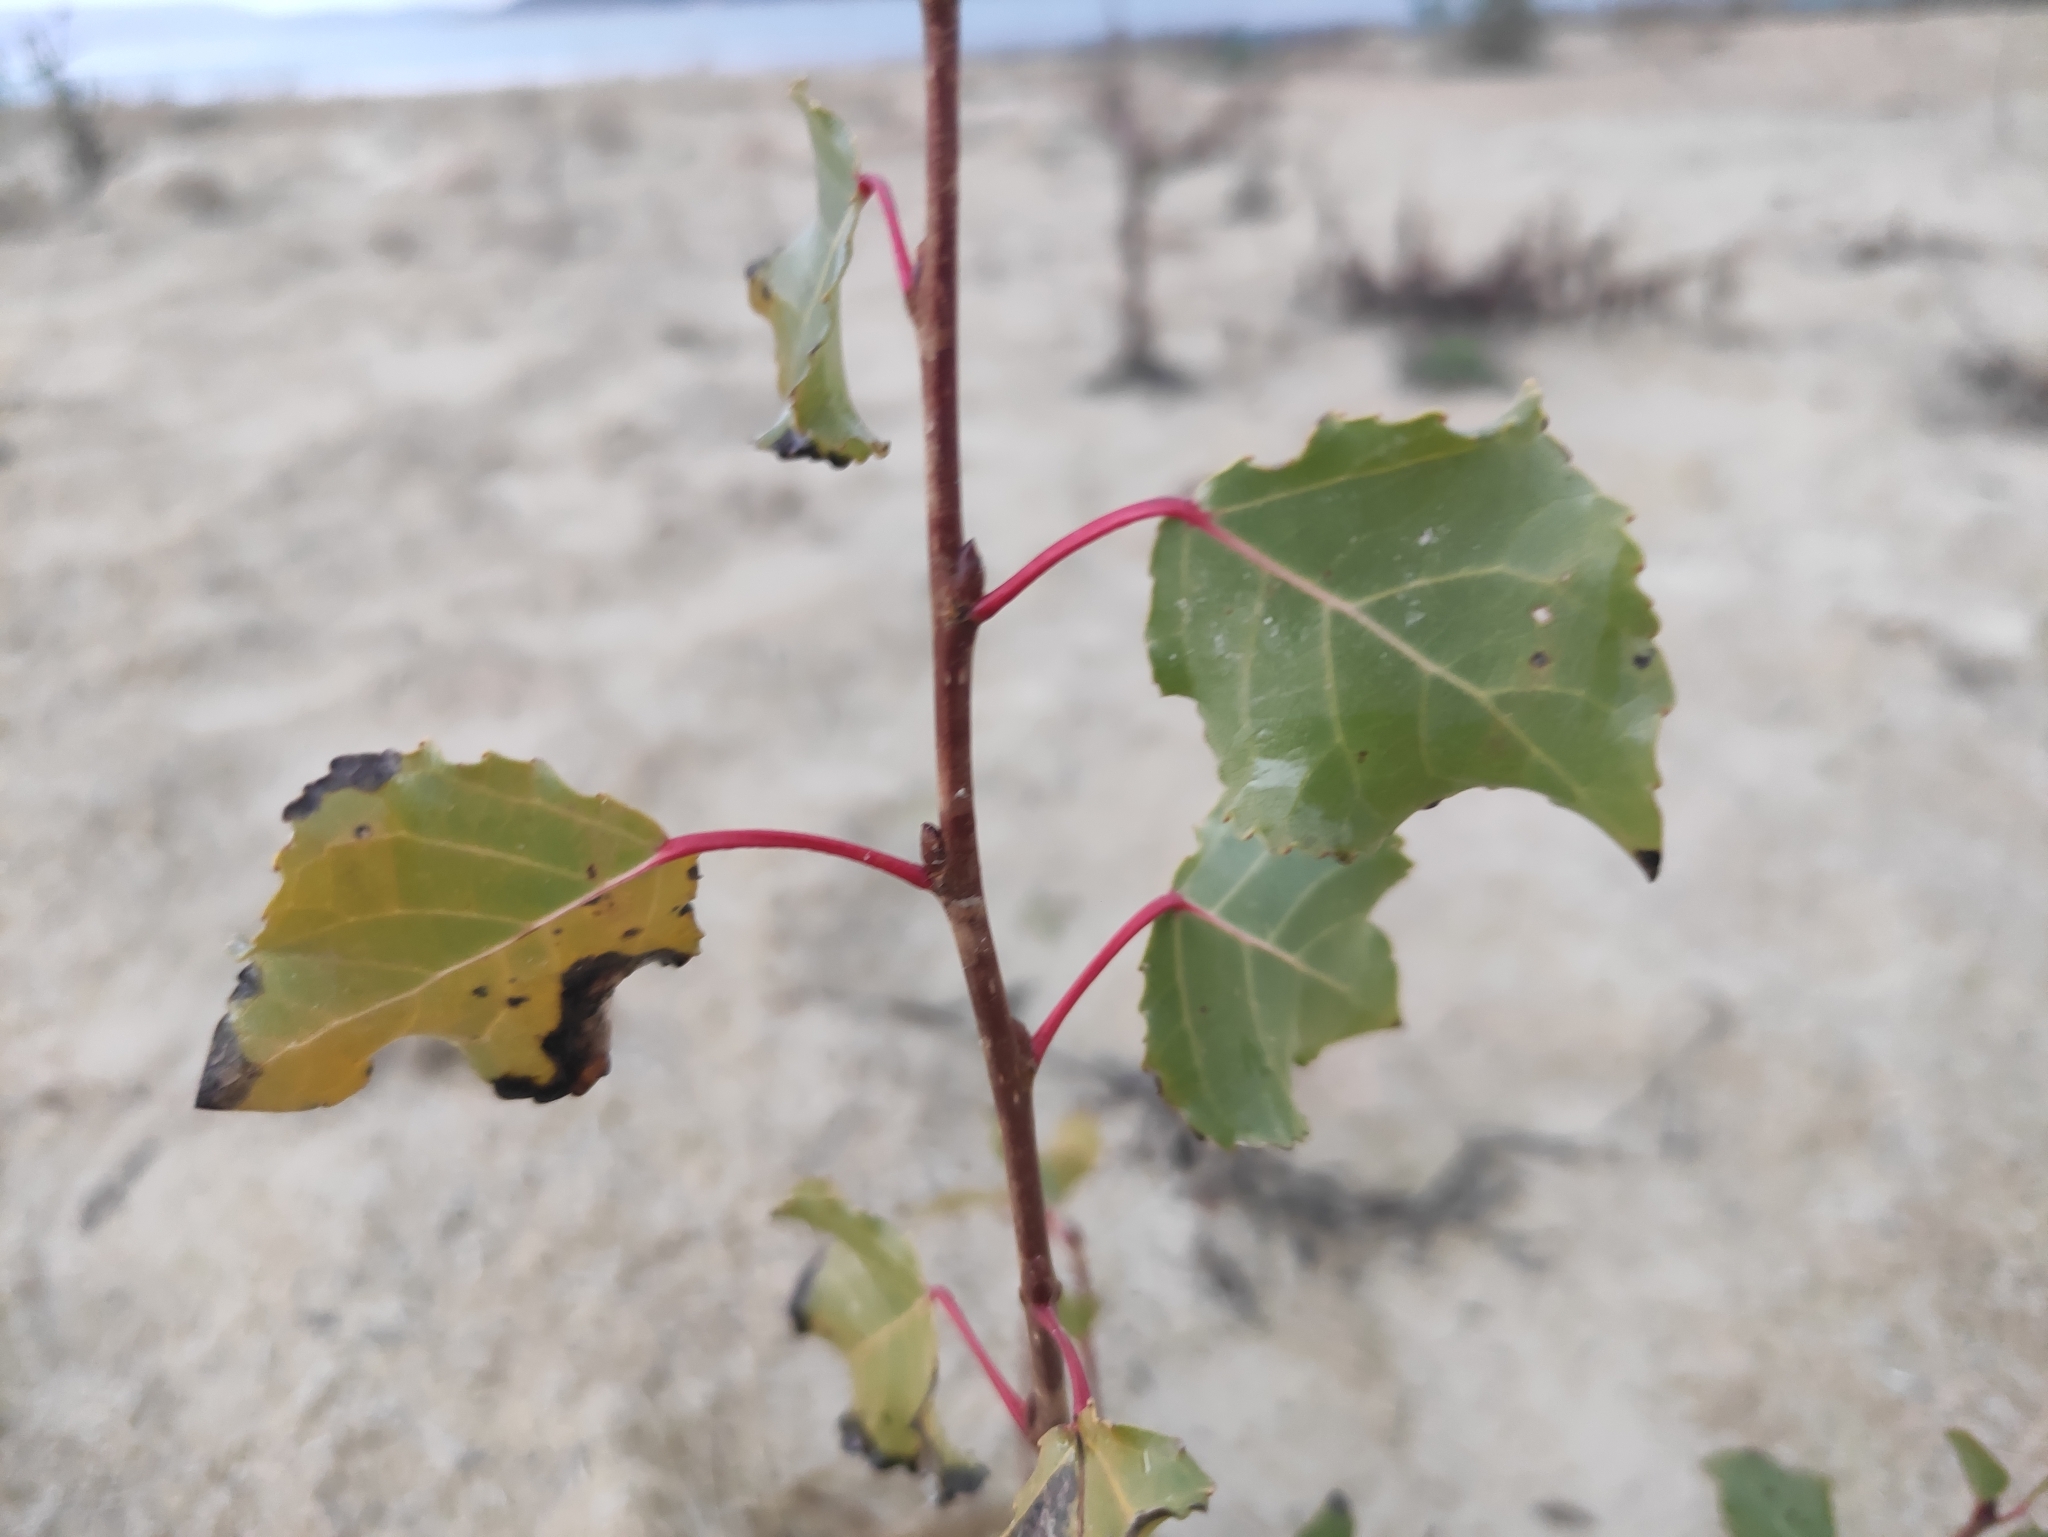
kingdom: Plantae
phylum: Tracheophyta
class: Magnoliopsida
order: Malpighiales
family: Salicaceae
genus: Populus
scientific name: Populus nigra
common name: Black poplar
